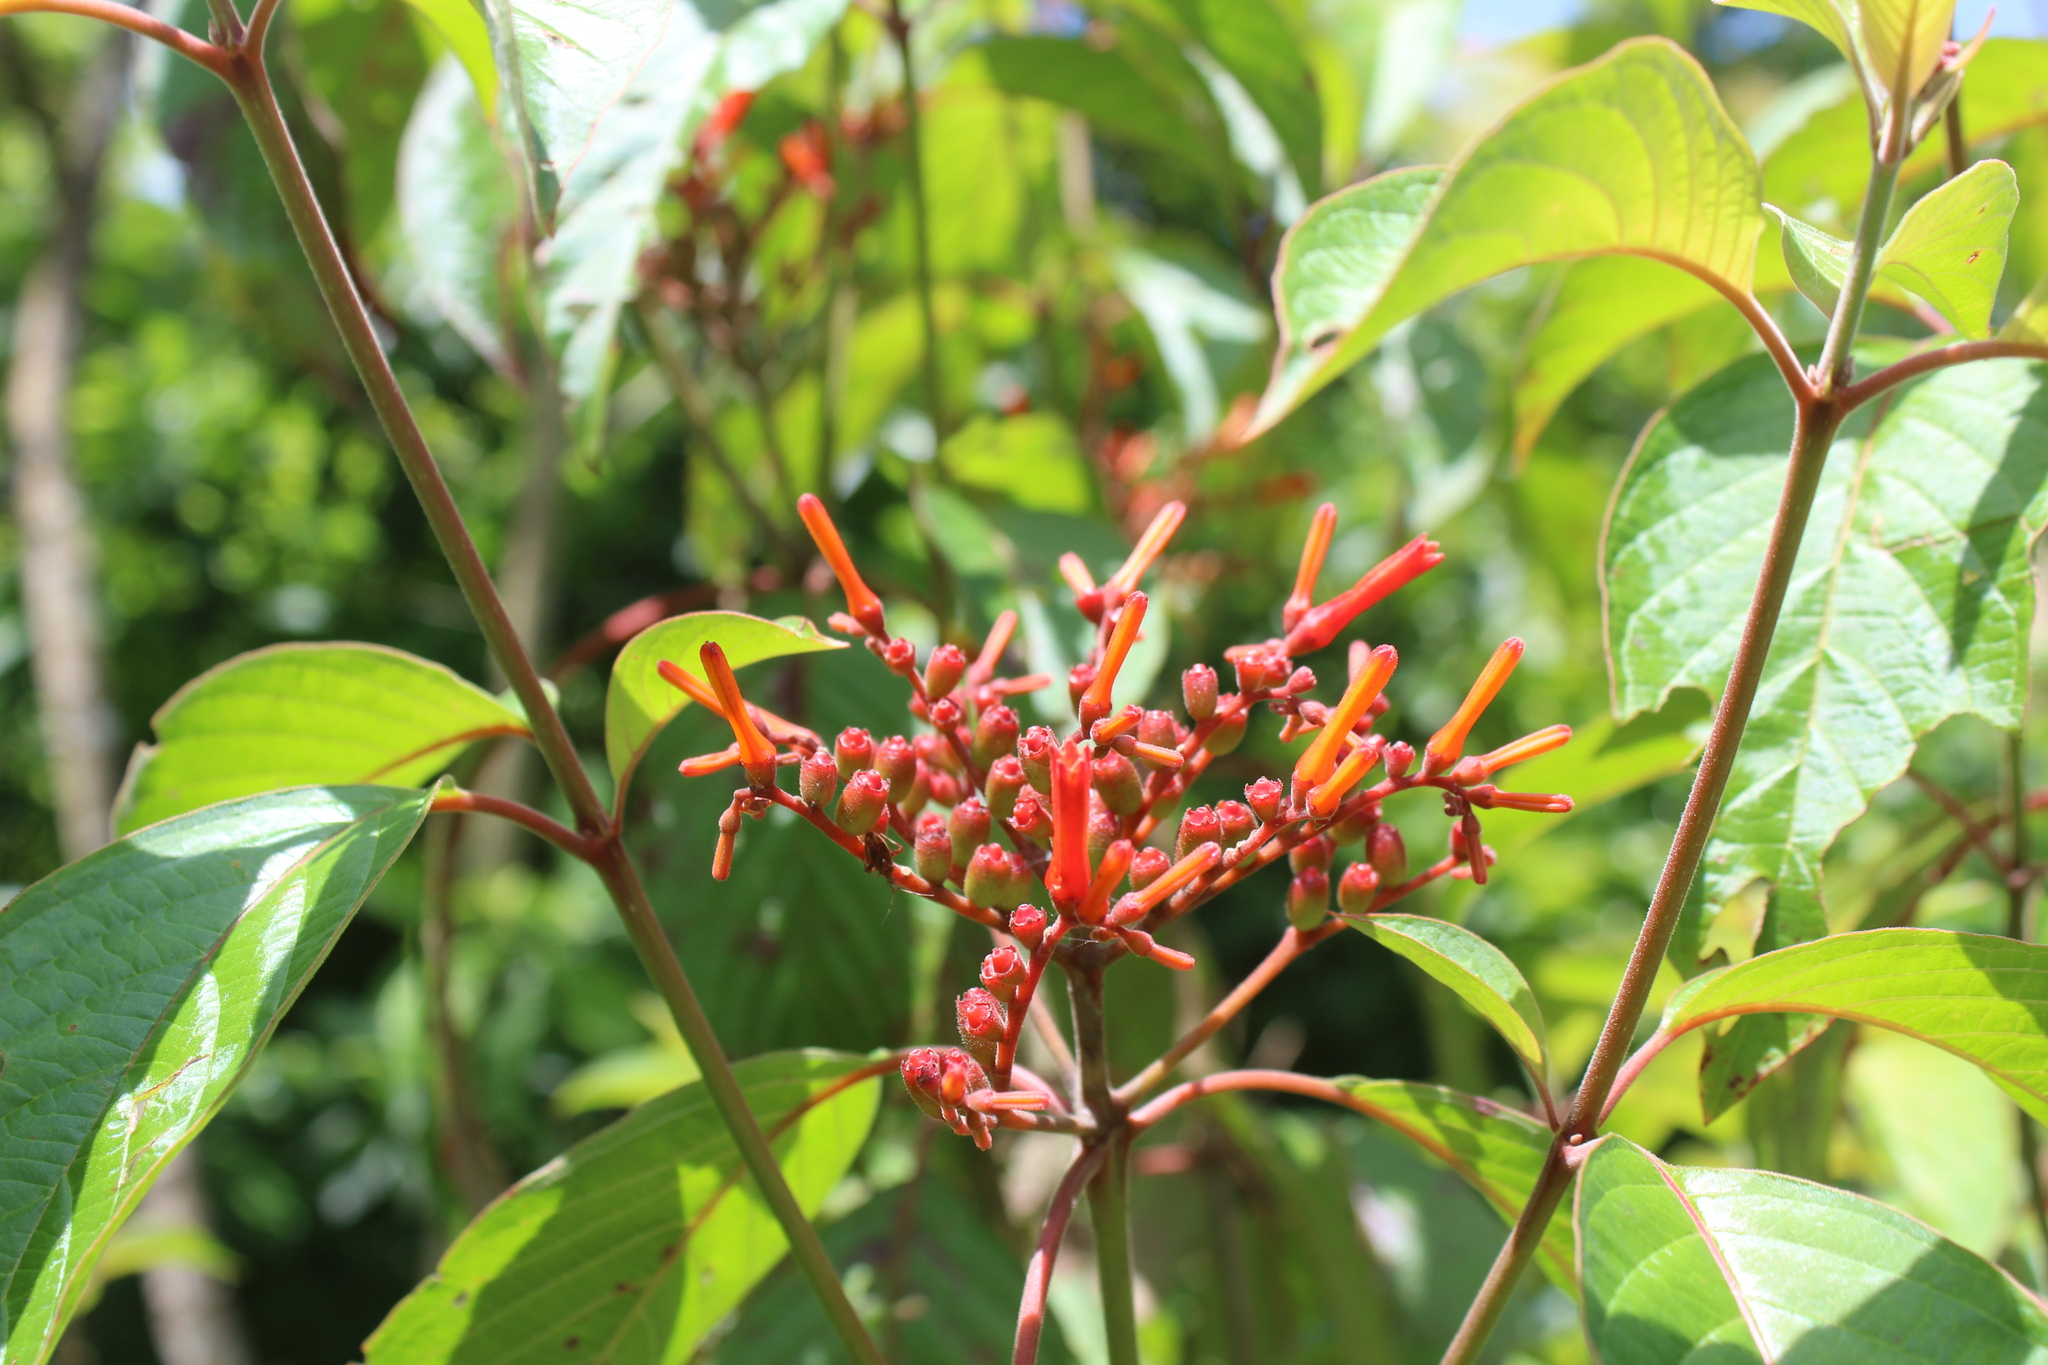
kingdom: Plantae
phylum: Tracheophyta
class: Magnoliopsida
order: Gentianales
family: Rubiaceae
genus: Hamelia
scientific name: Hamelia patens
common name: Redhead
